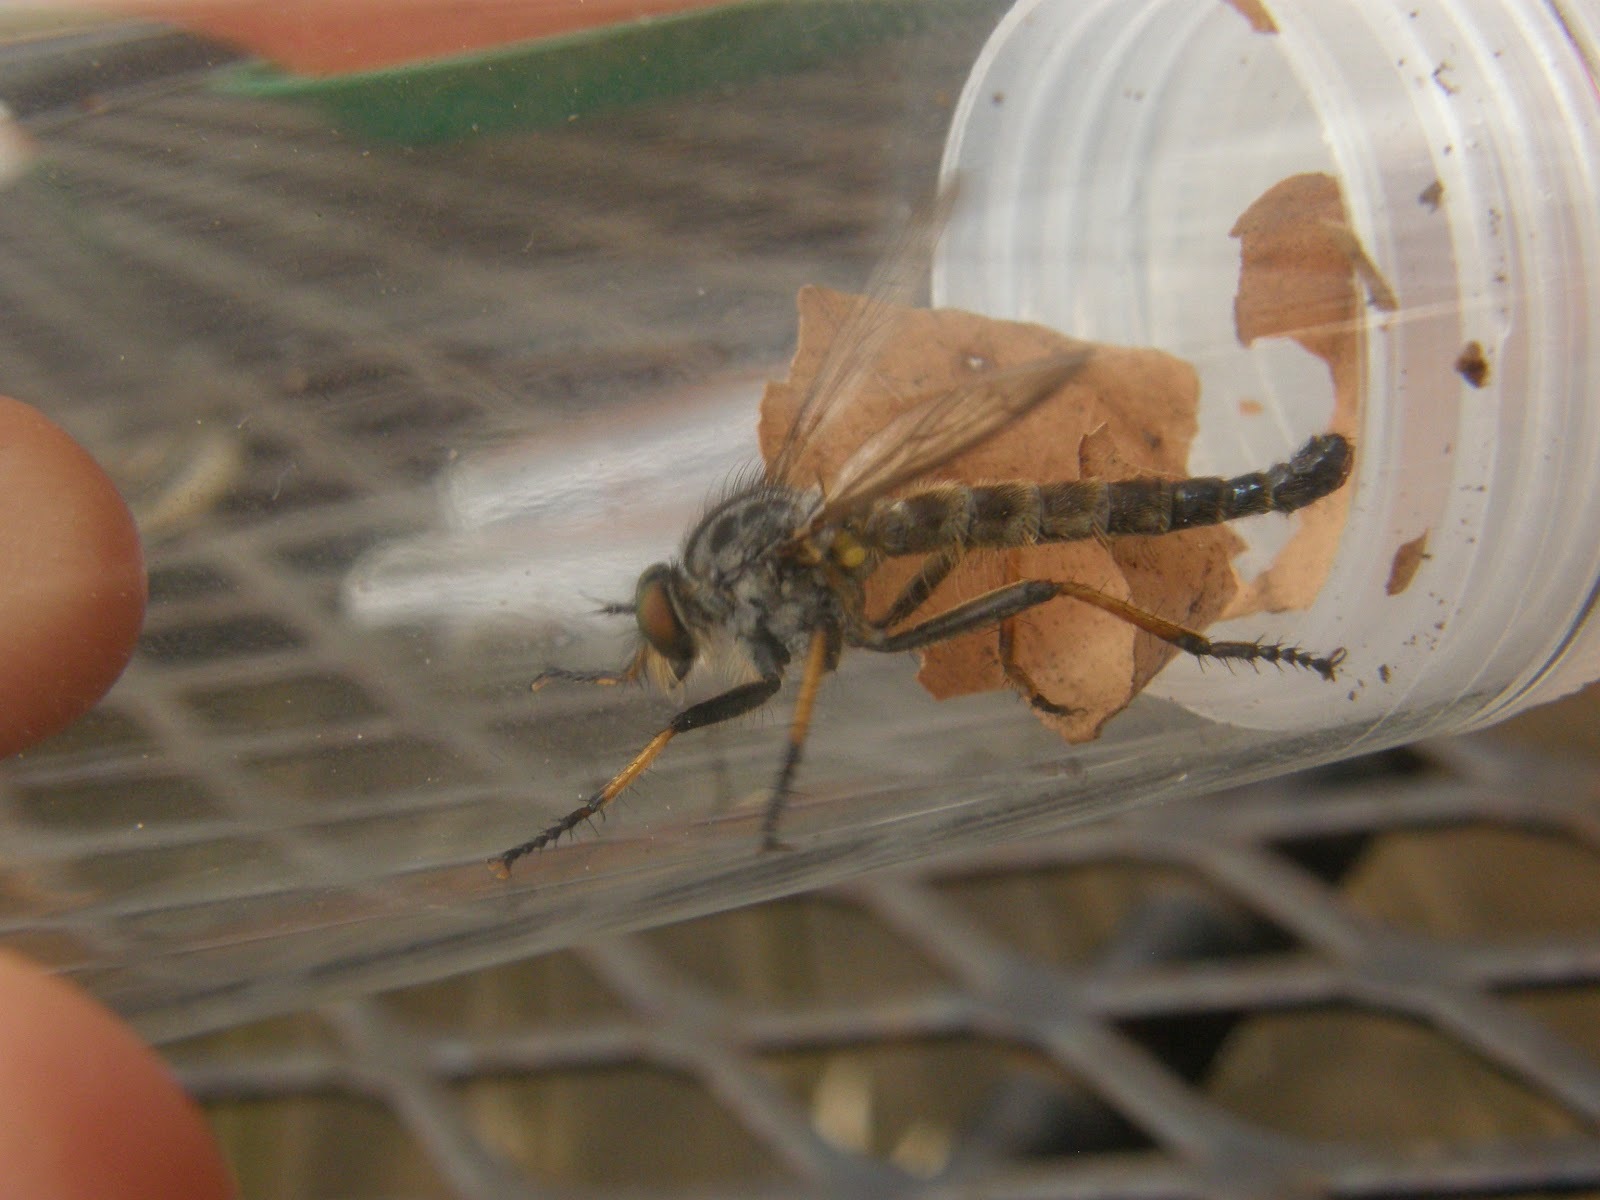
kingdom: Animalia
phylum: Arthropoda
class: Insecta
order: Diptera
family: Asilidae
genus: Neoitamus
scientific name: Neoitamus cyanurus
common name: Common awl robberfly
